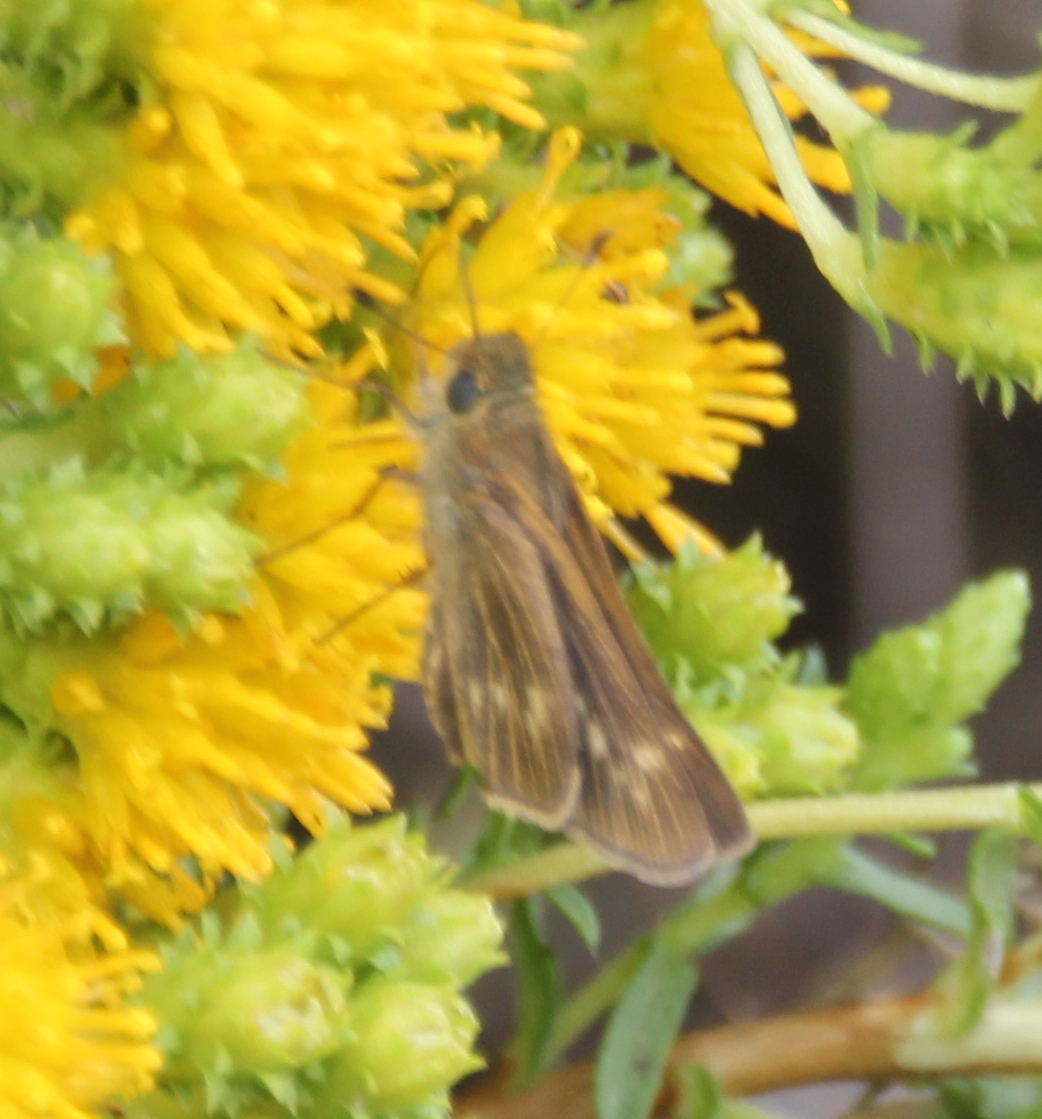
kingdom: Animalia
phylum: Arthropoda
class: Insecta
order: Lepidoptera
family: Hesperiidae
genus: Panoquina
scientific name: Panoquina errans
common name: Wandering skipper
